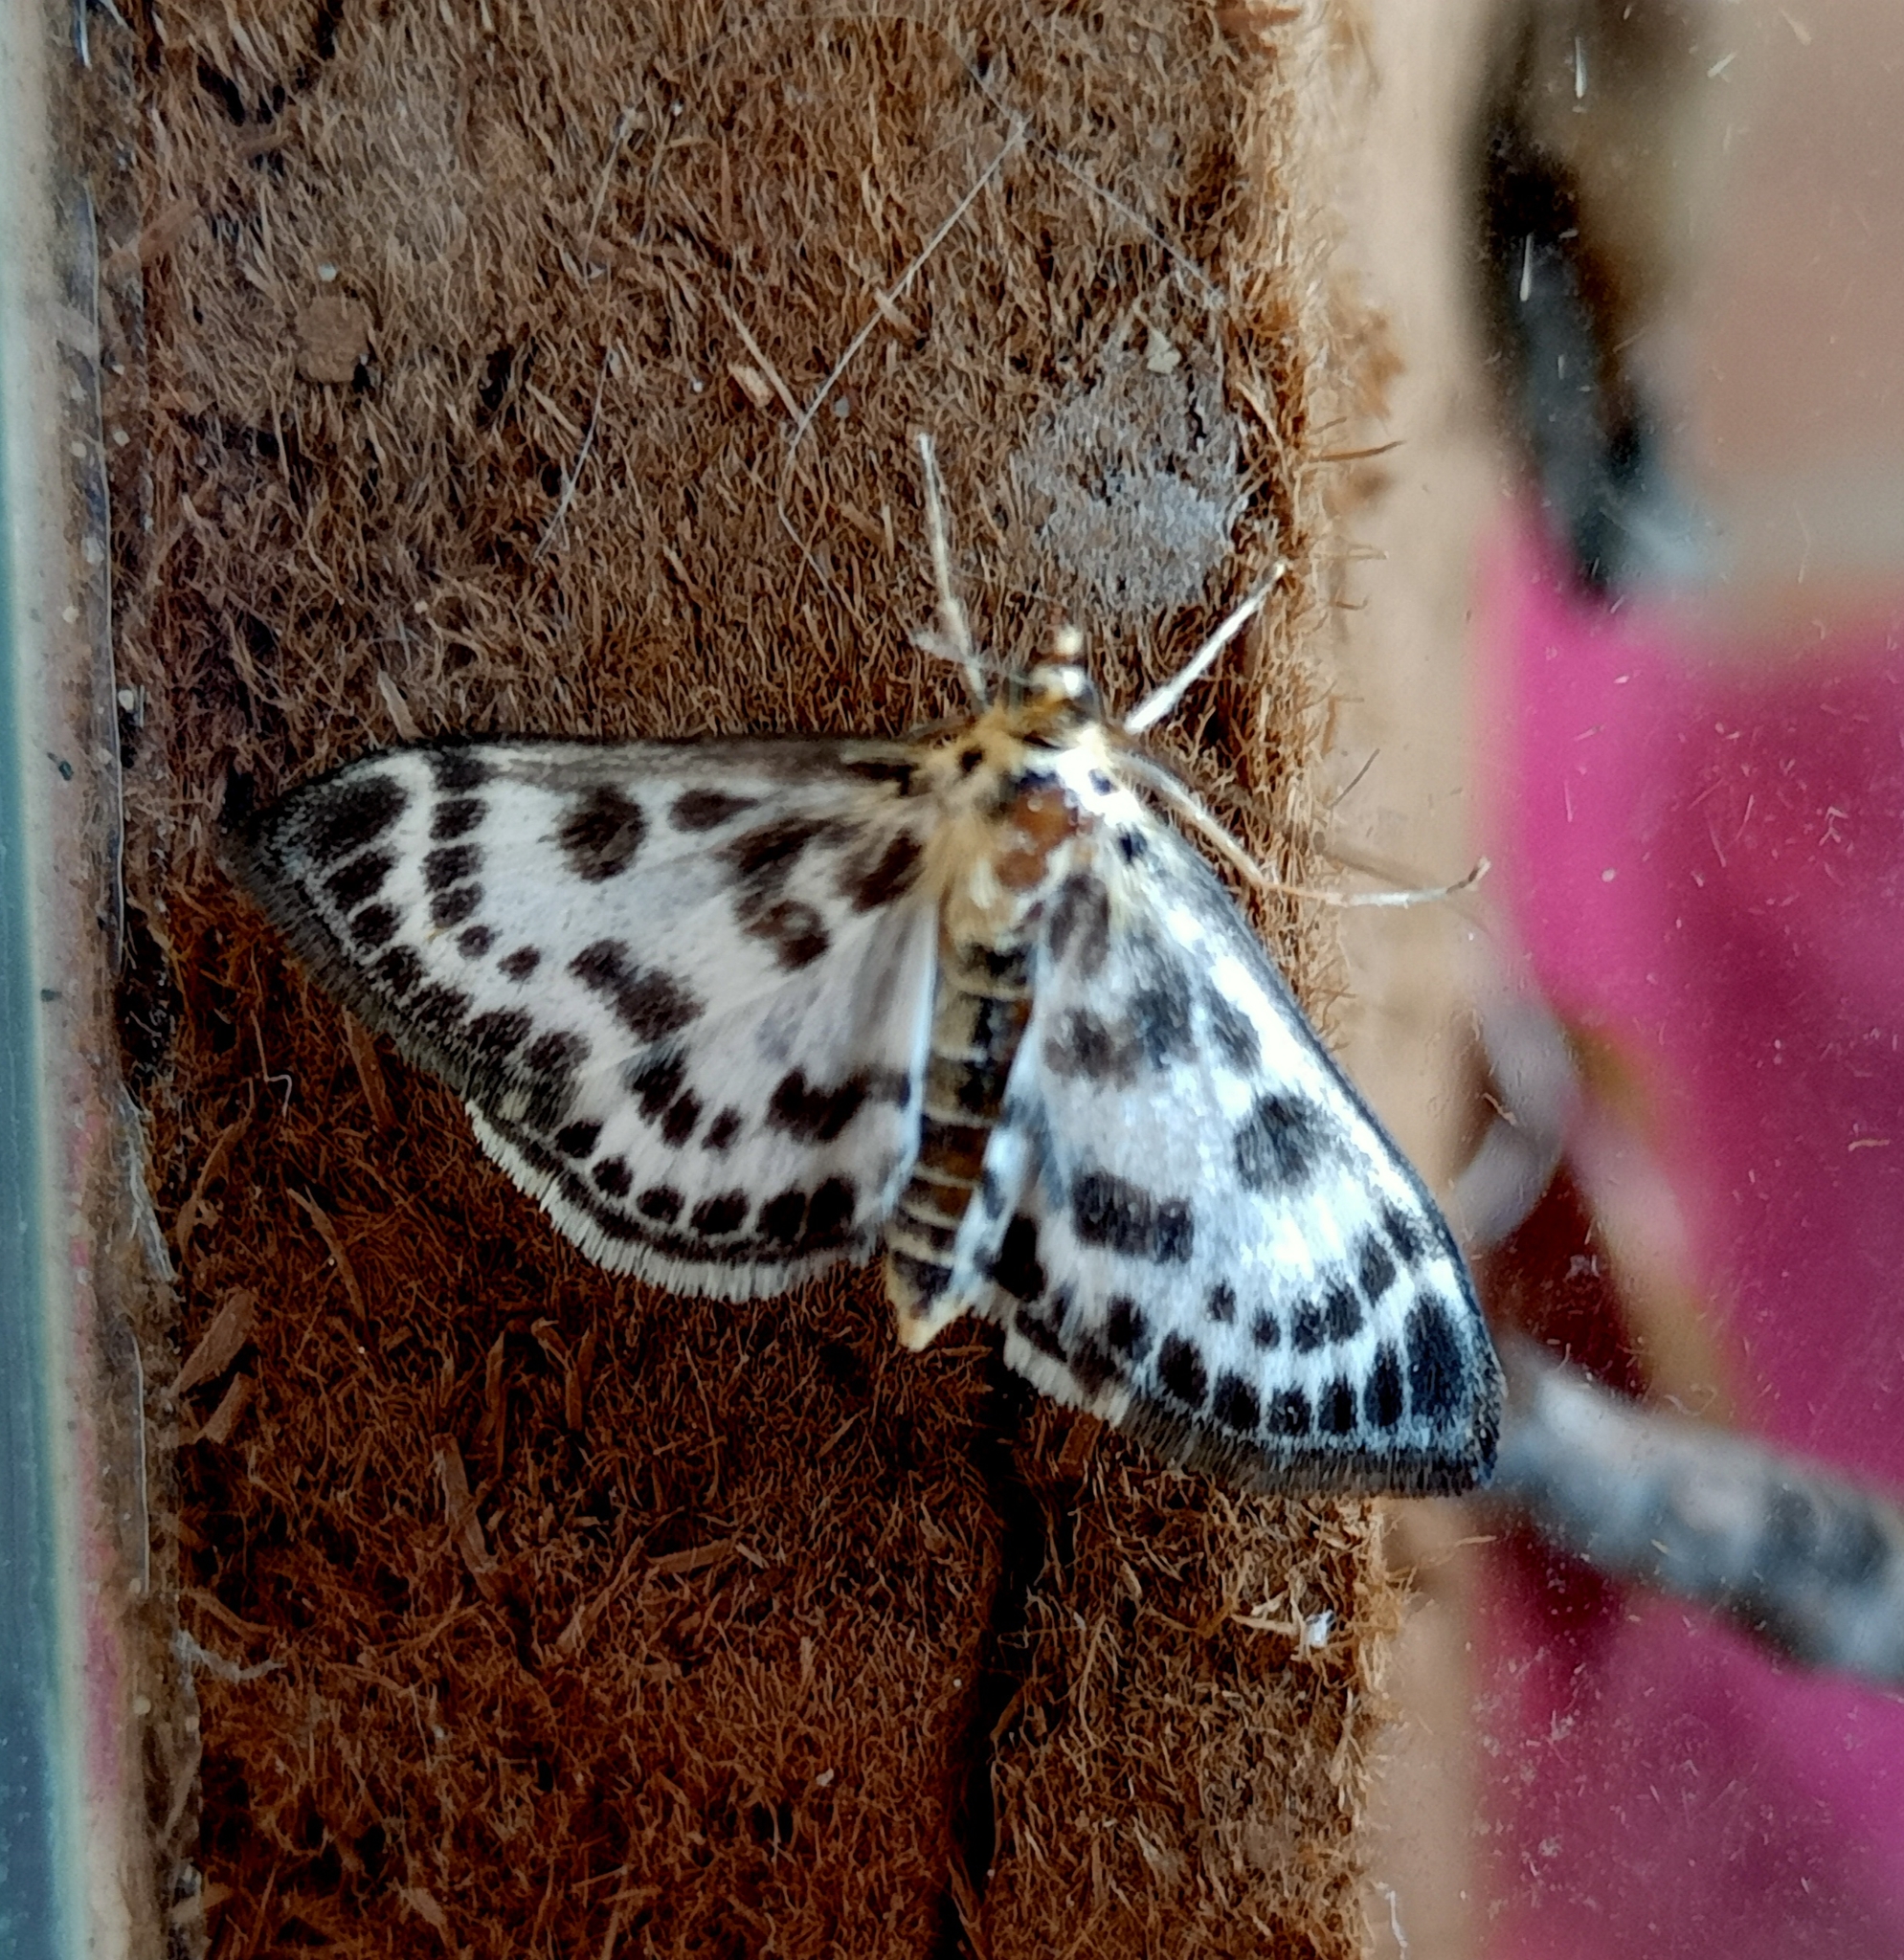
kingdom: Animalia
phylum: Arthropoda
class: Insecta
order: Lepidoptera
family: Crambidae
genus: Anania
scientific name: Anania hortulata
